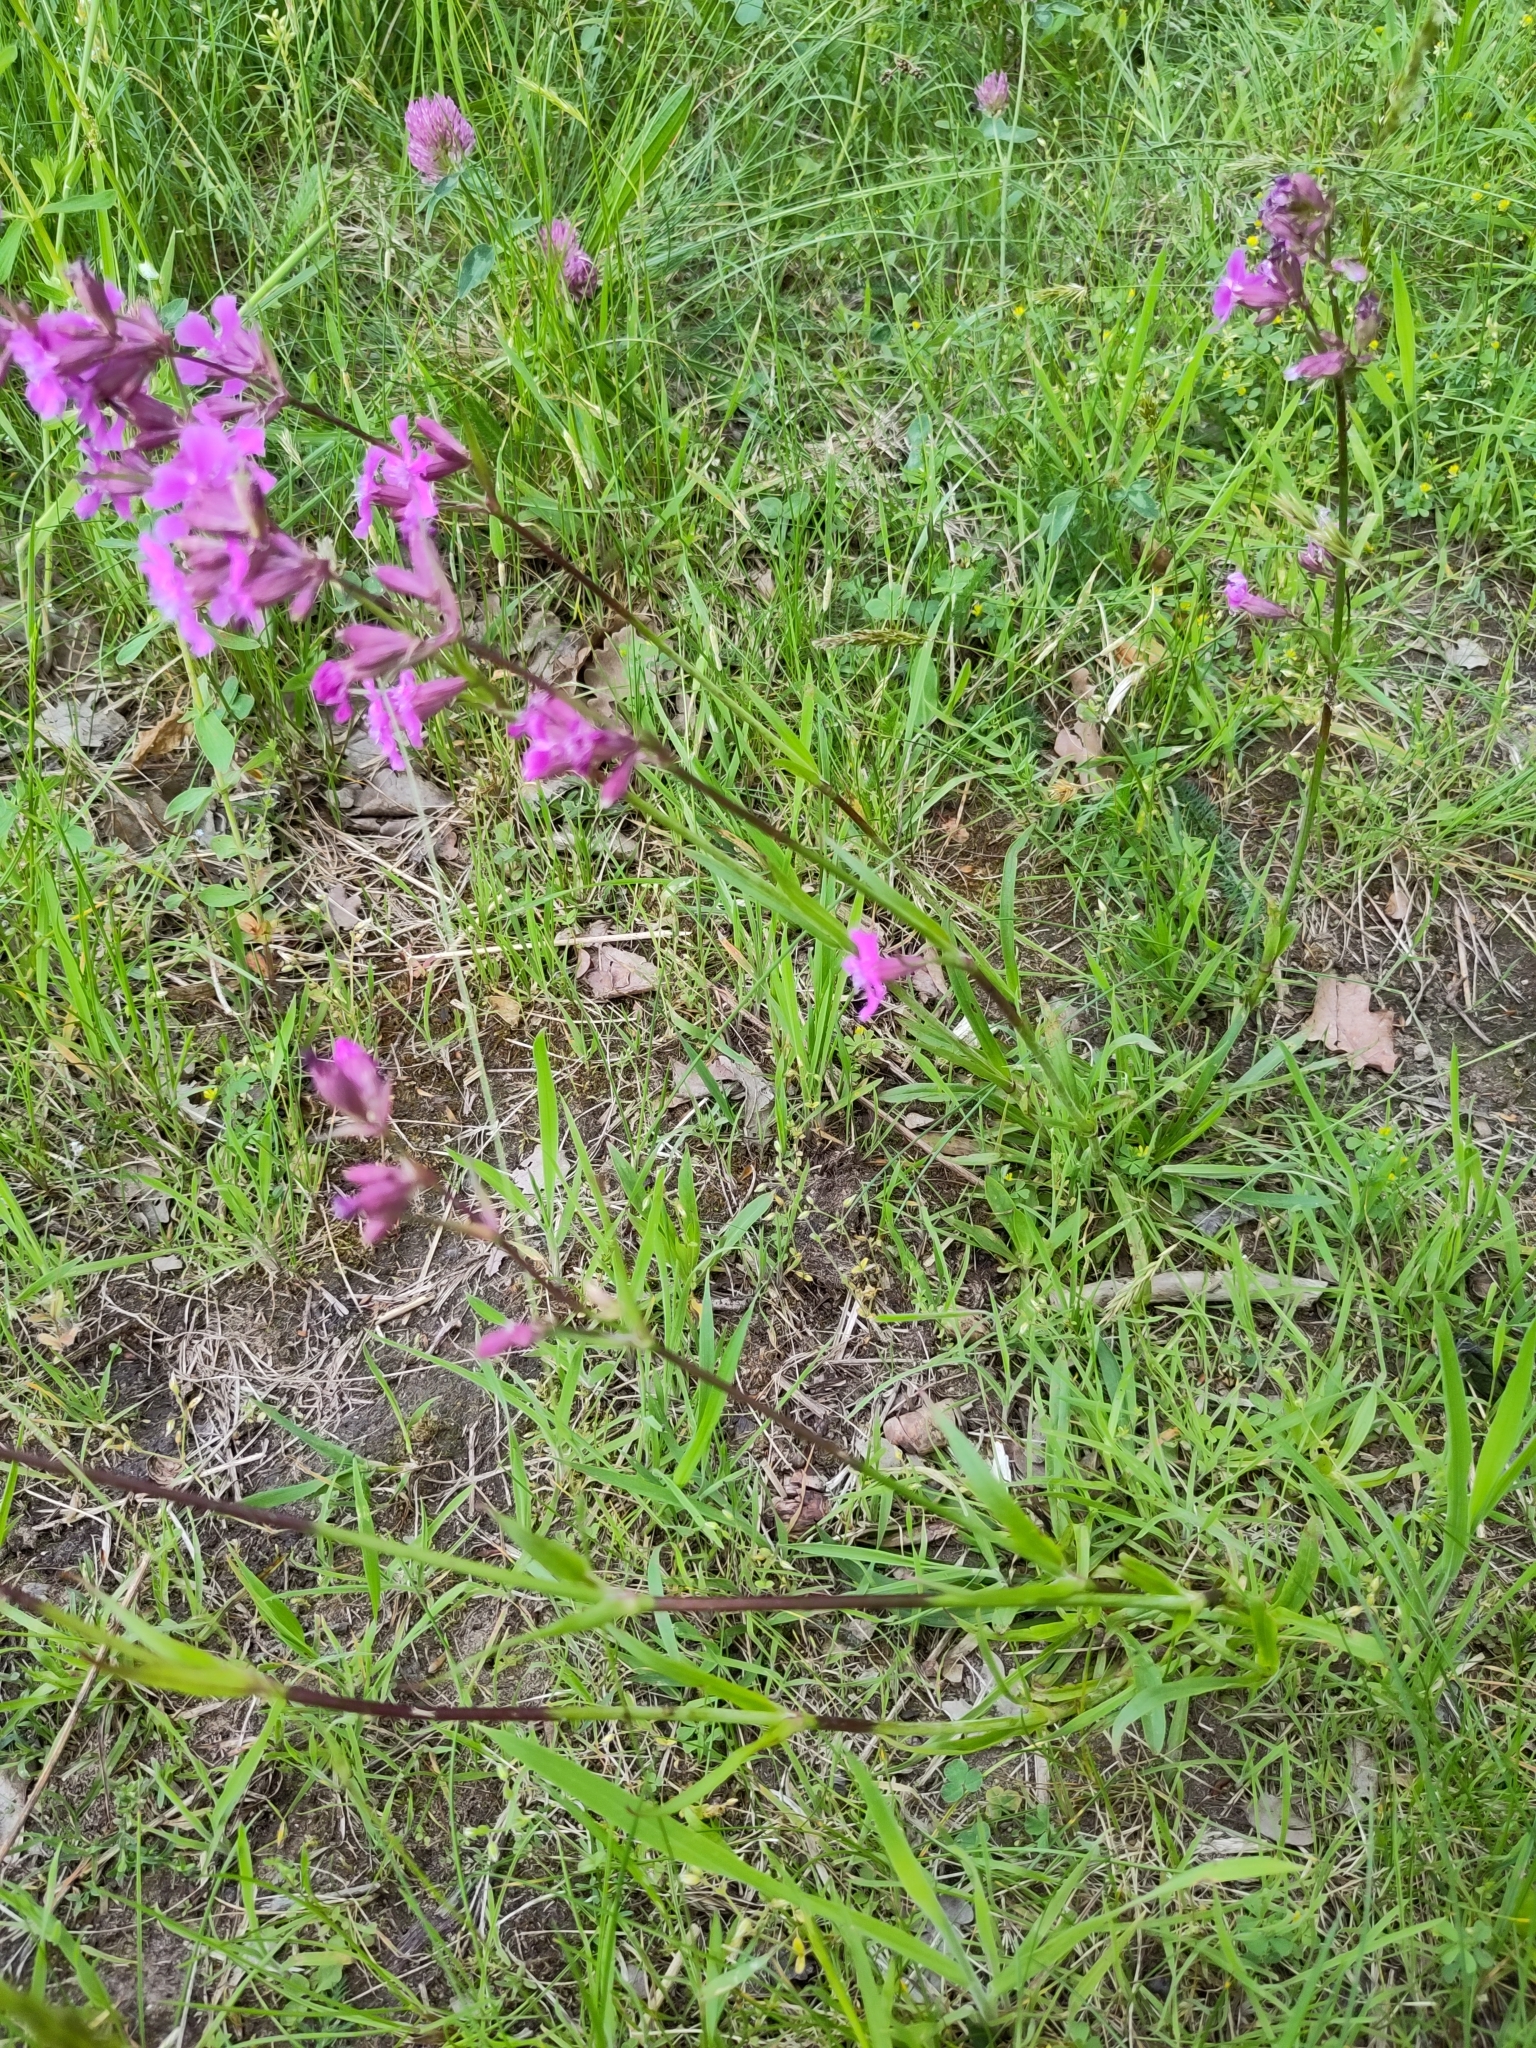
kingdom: Plantae
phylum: Tracheophyta
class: Magnoliopsida
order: Caryophyllales
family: Caryophyllaceae
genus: Viscaria
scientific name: Viscaria vulgaris
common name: Clammy campion
